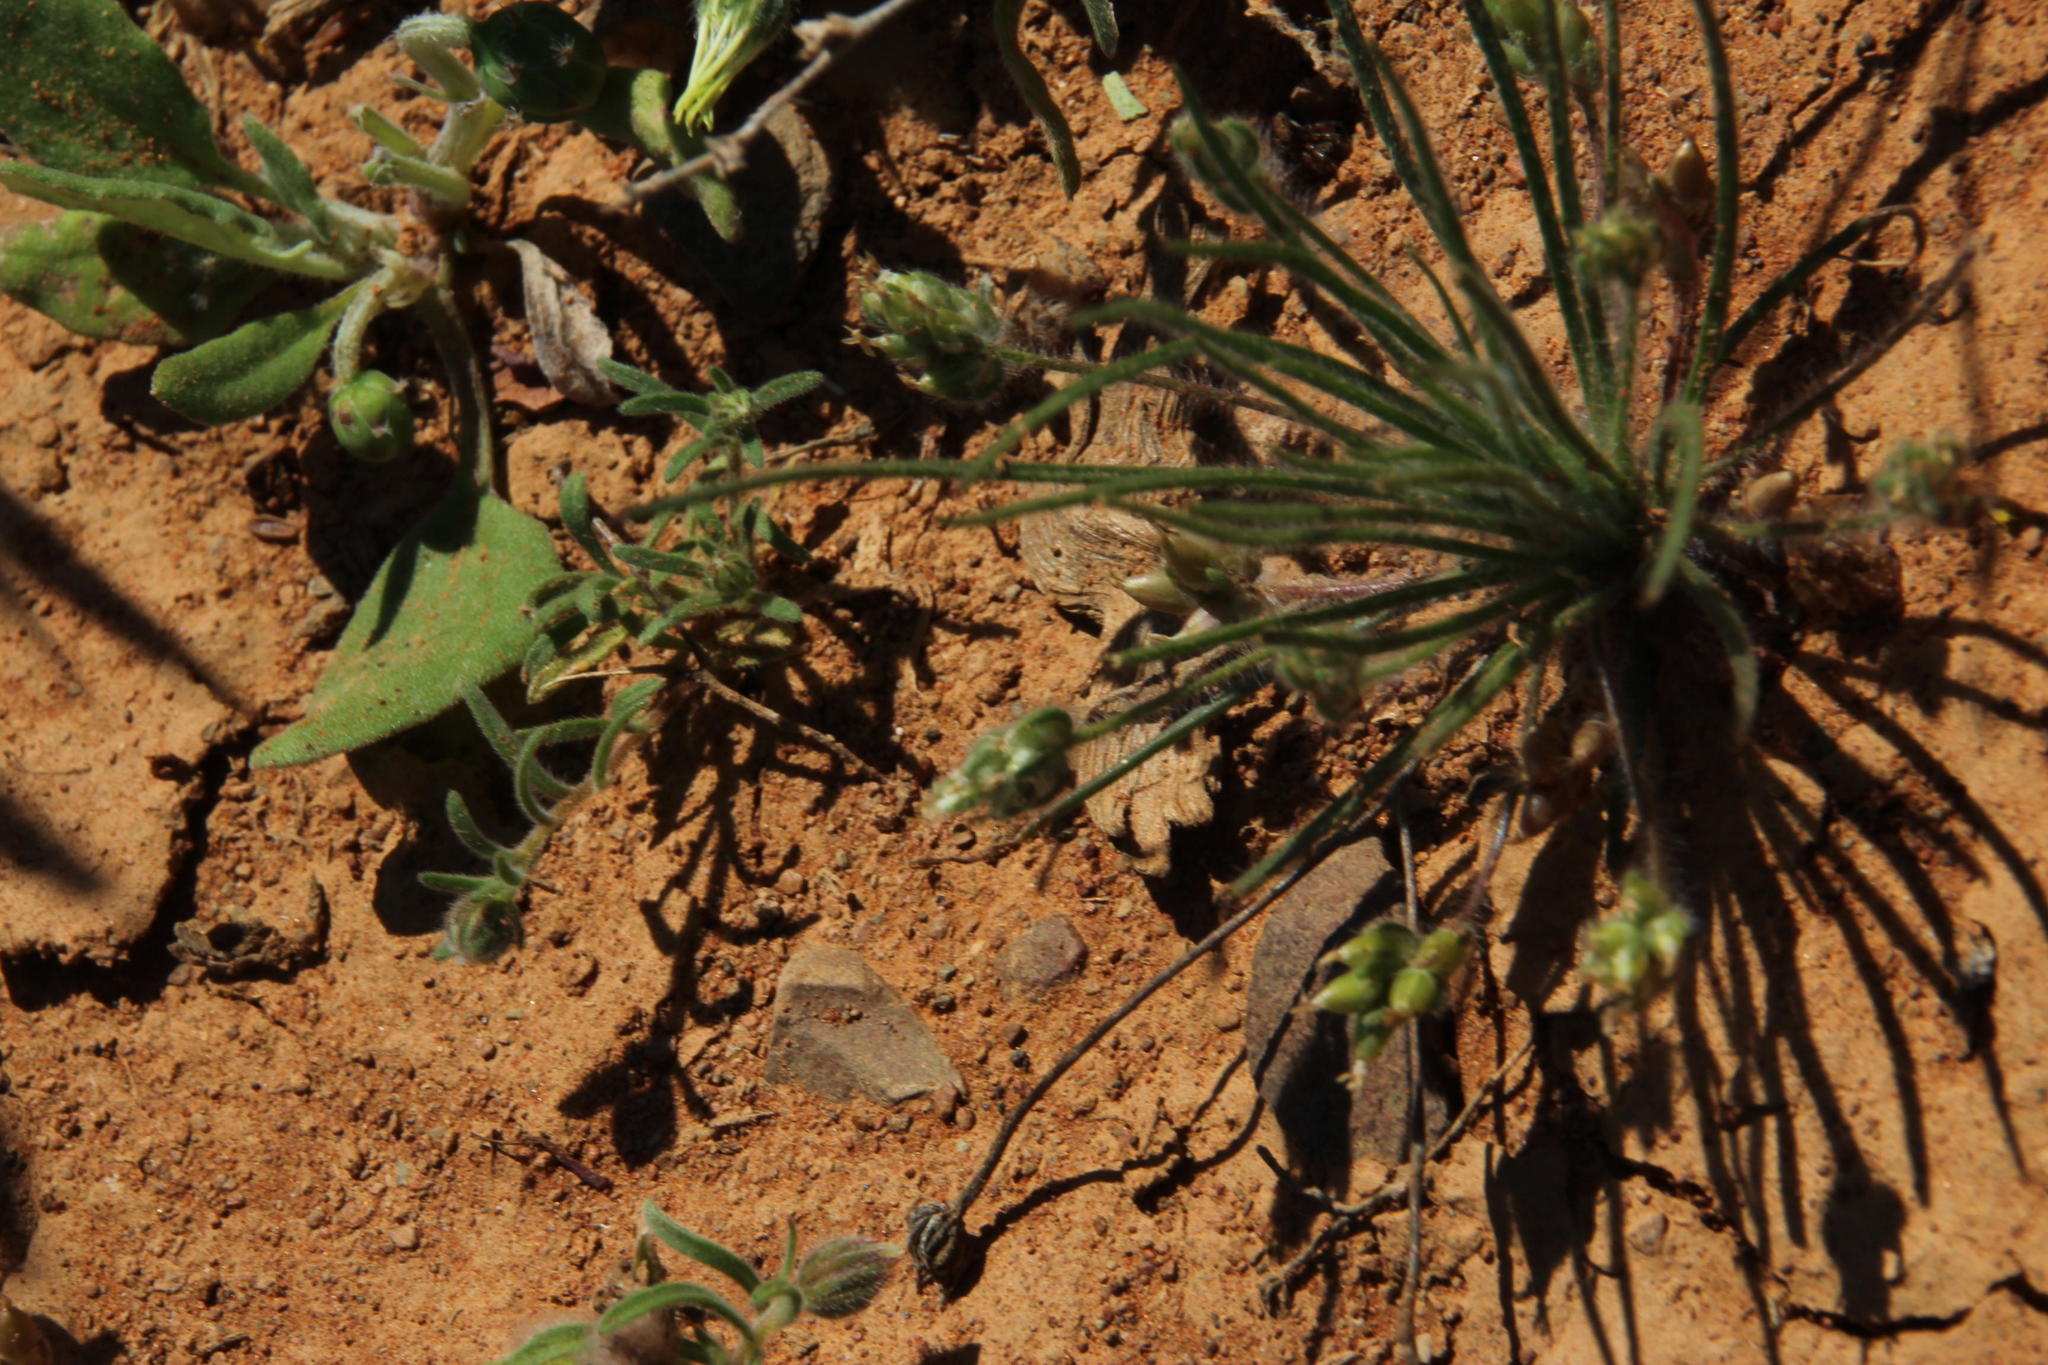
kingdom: Plantae
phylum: Tracheophyta
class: Magnoliopsida
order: Lamiales
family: Plantaginaceae
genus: Plantago
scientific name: Plantago cafra
